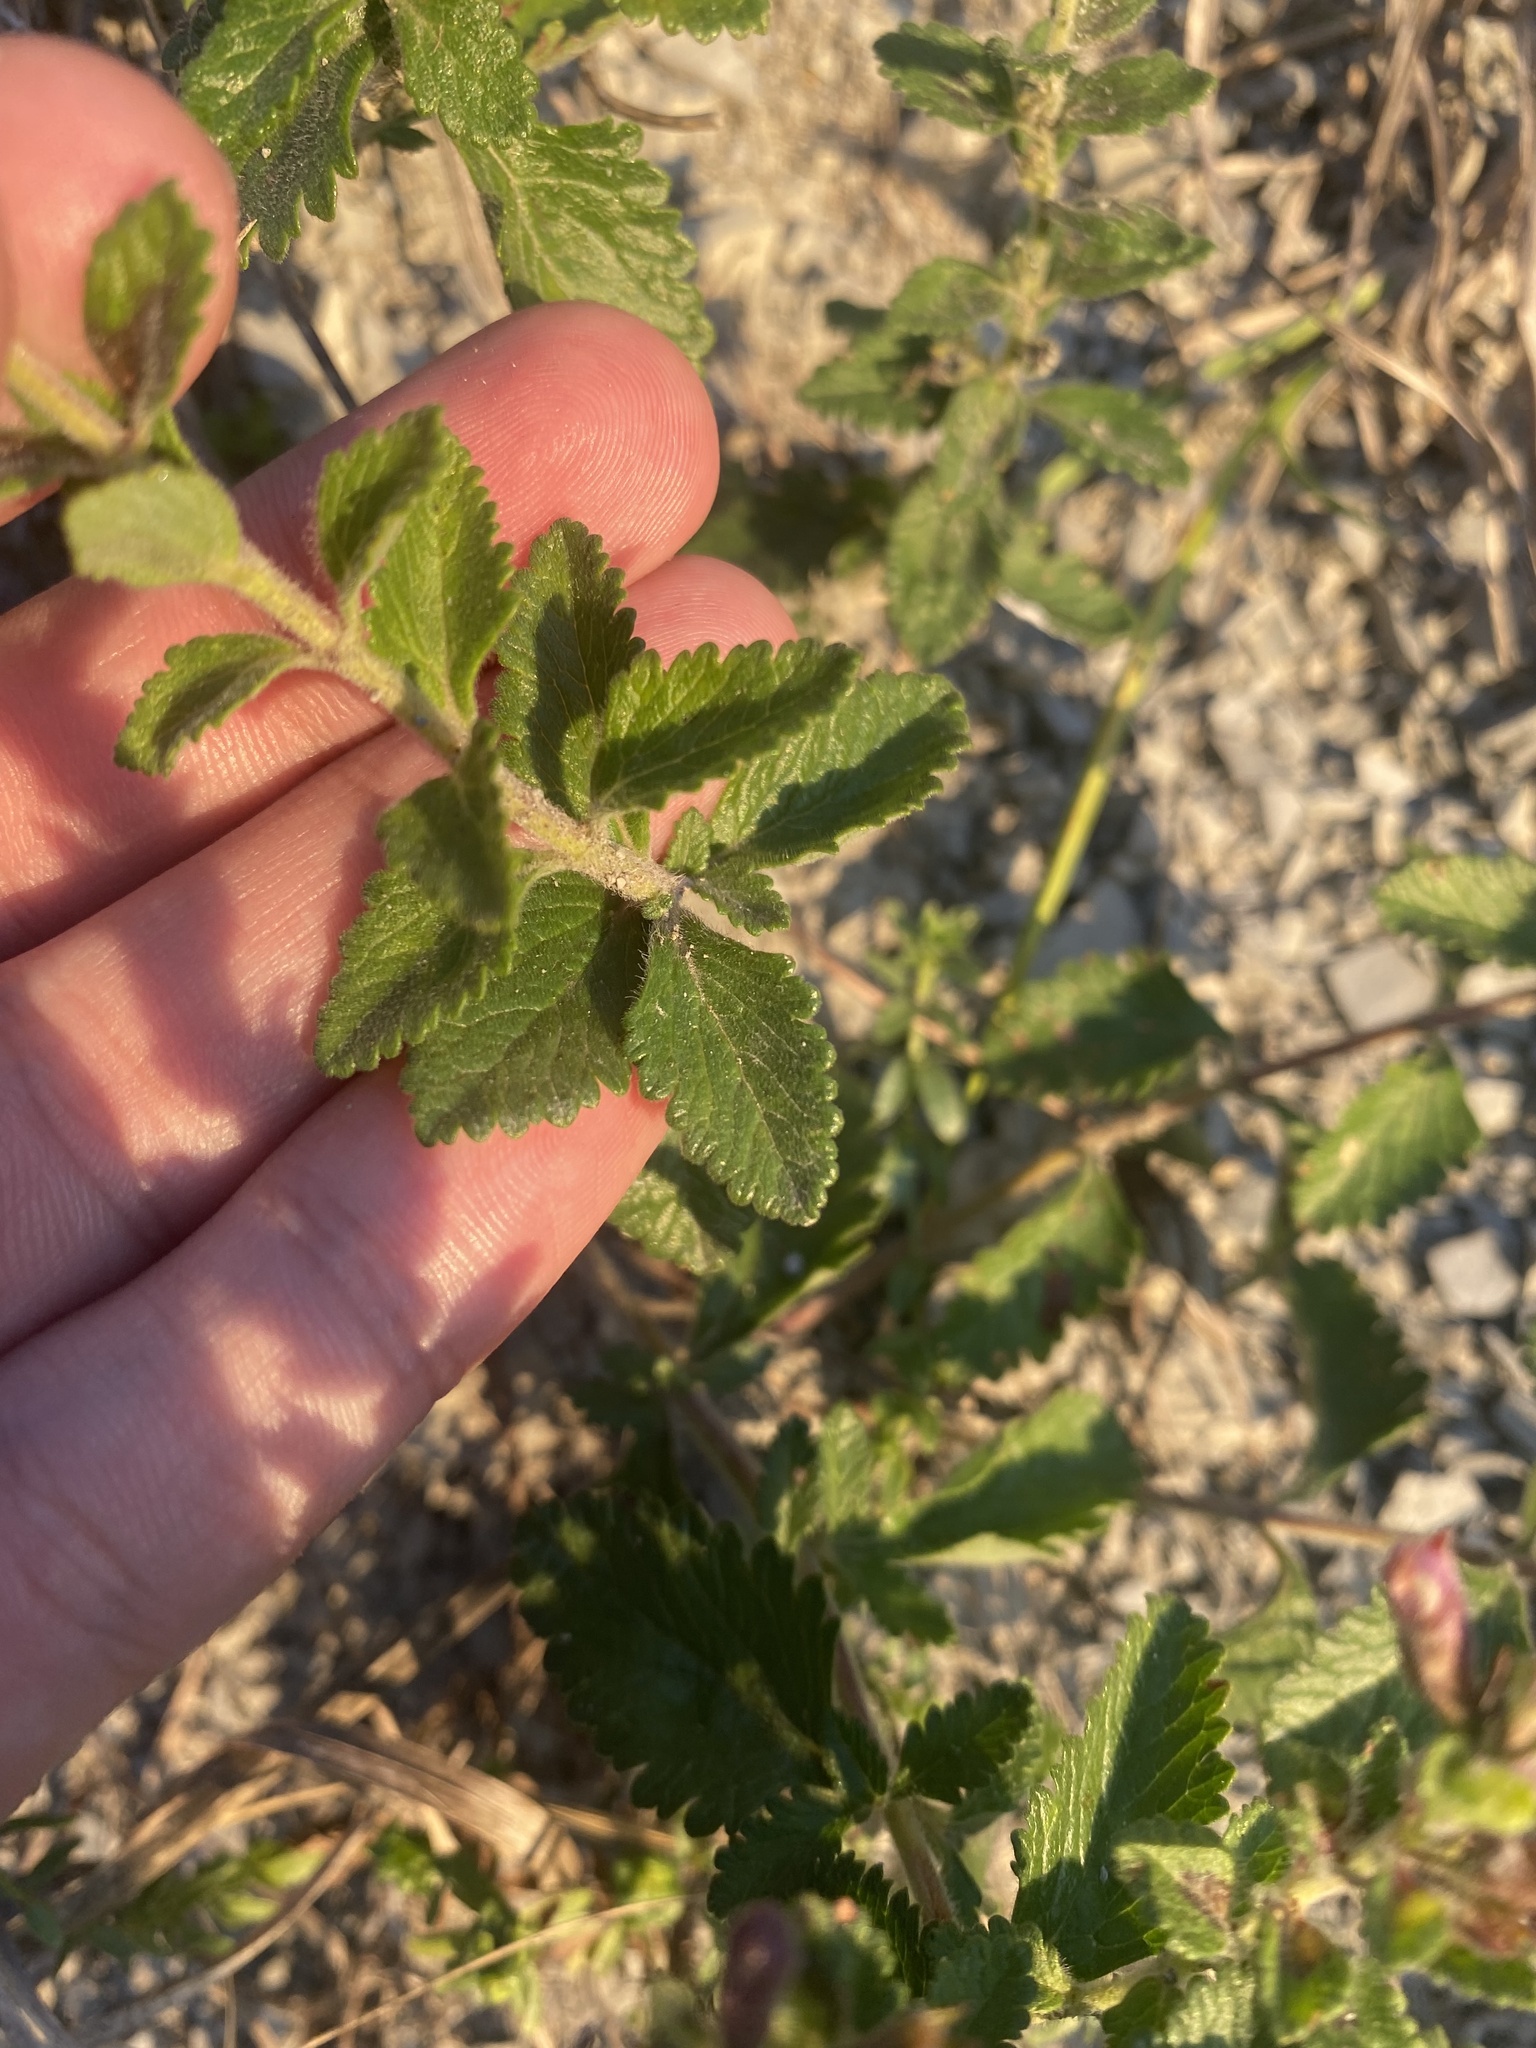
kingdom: Plantae
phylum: Tracheophyta
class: Magnoliopsida
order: Lamiales
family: Lamiaceae
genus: Teucrium
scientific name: Teucrium chamaedrys
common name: Wall germander
